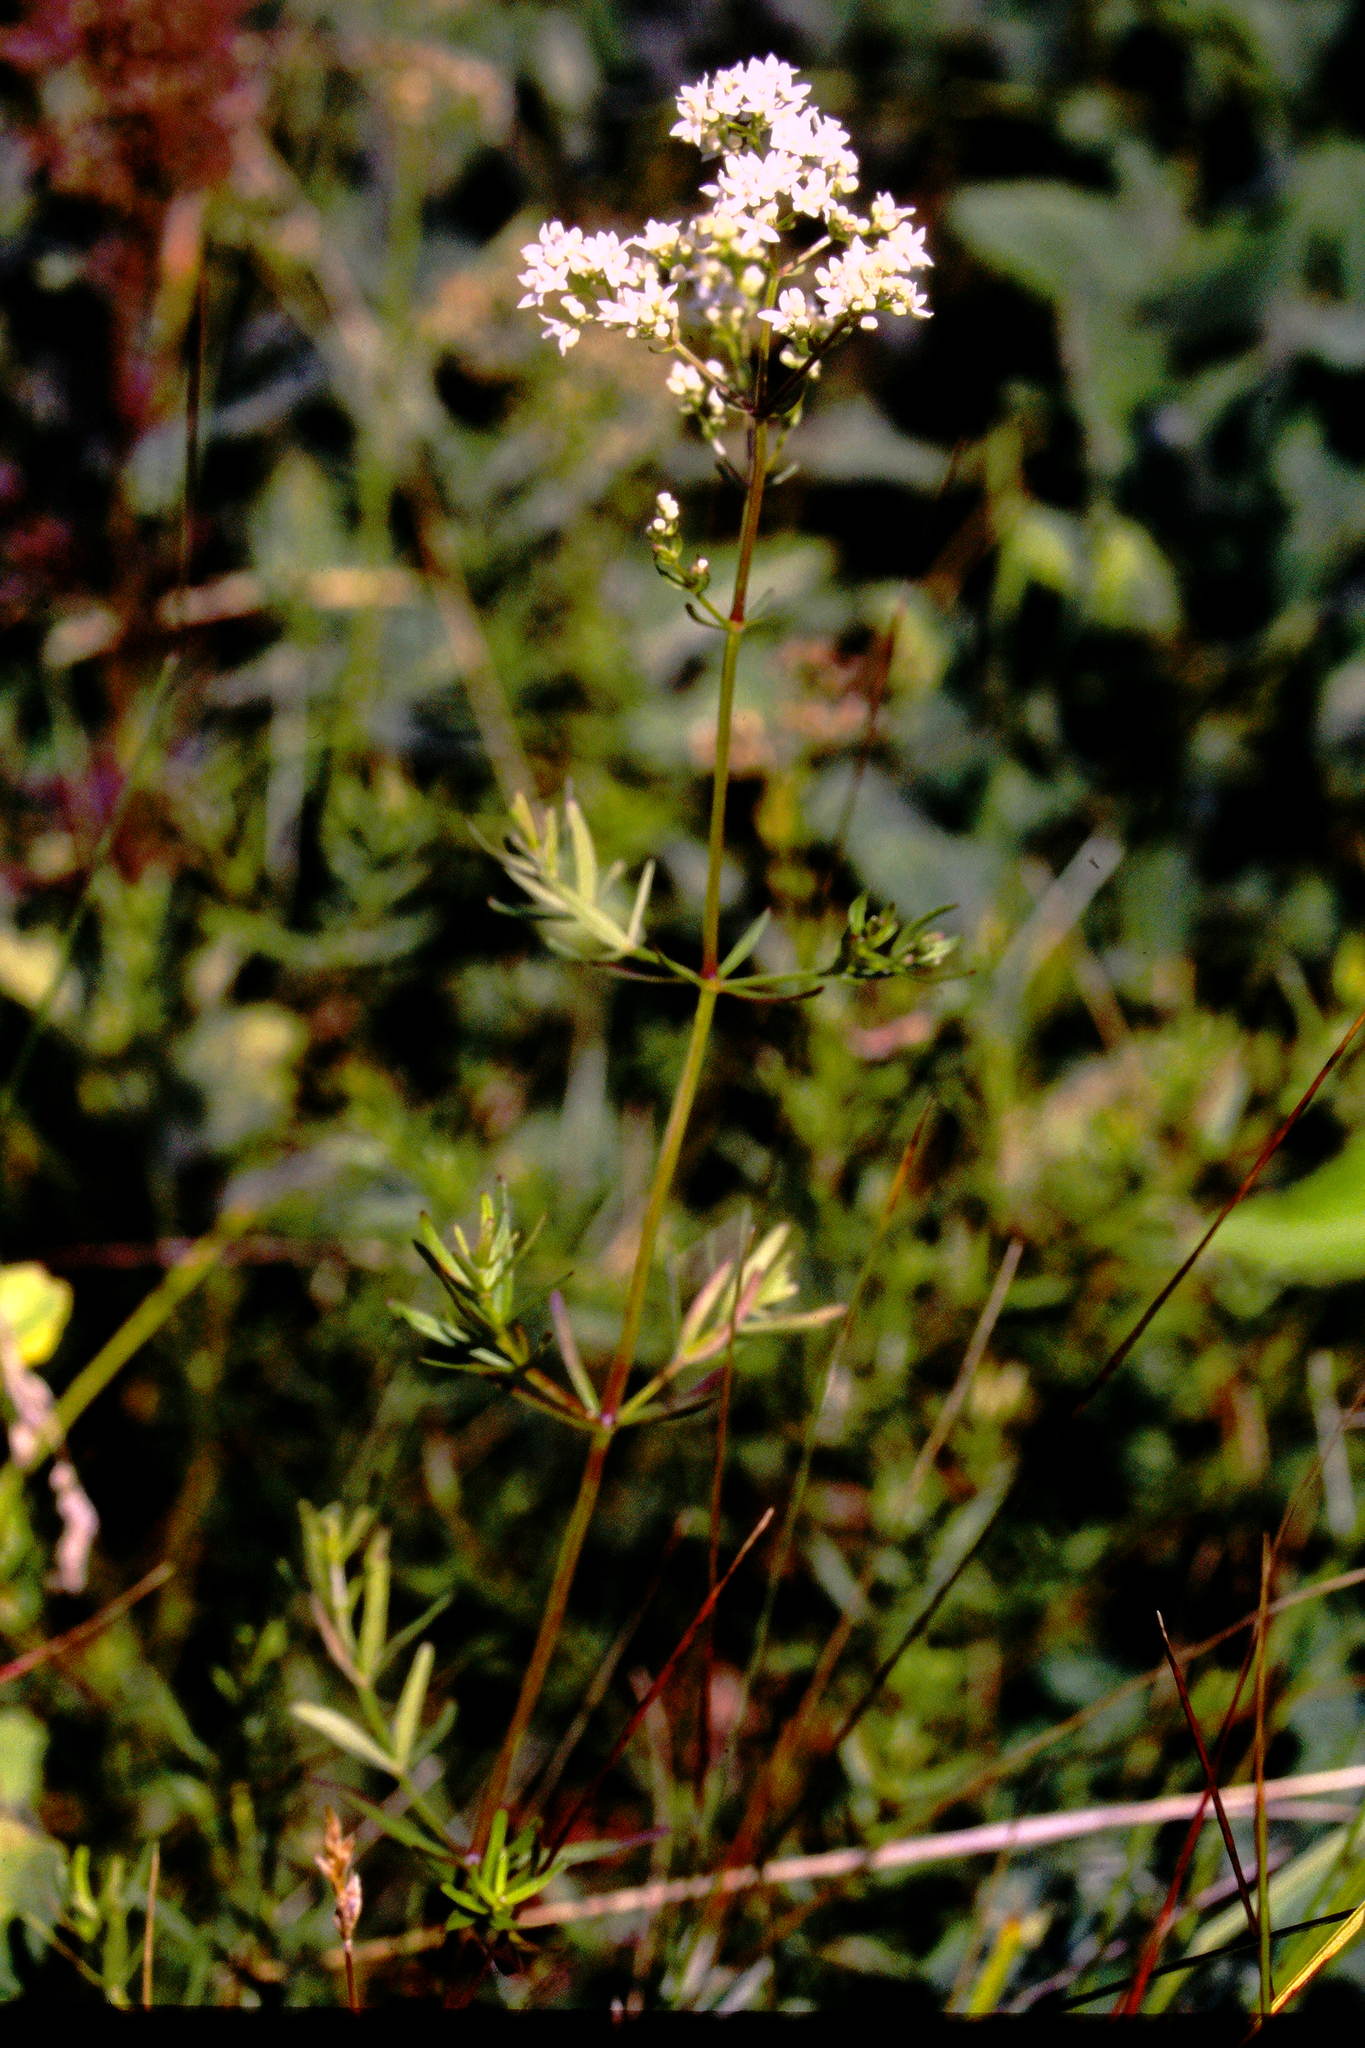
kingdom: Plantae
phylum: Tracheophyta
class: Magnoliopsida
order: Gentianales
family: Rubiaceae
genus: Galium
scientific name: Galium boreale
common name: Northern bedstraw
